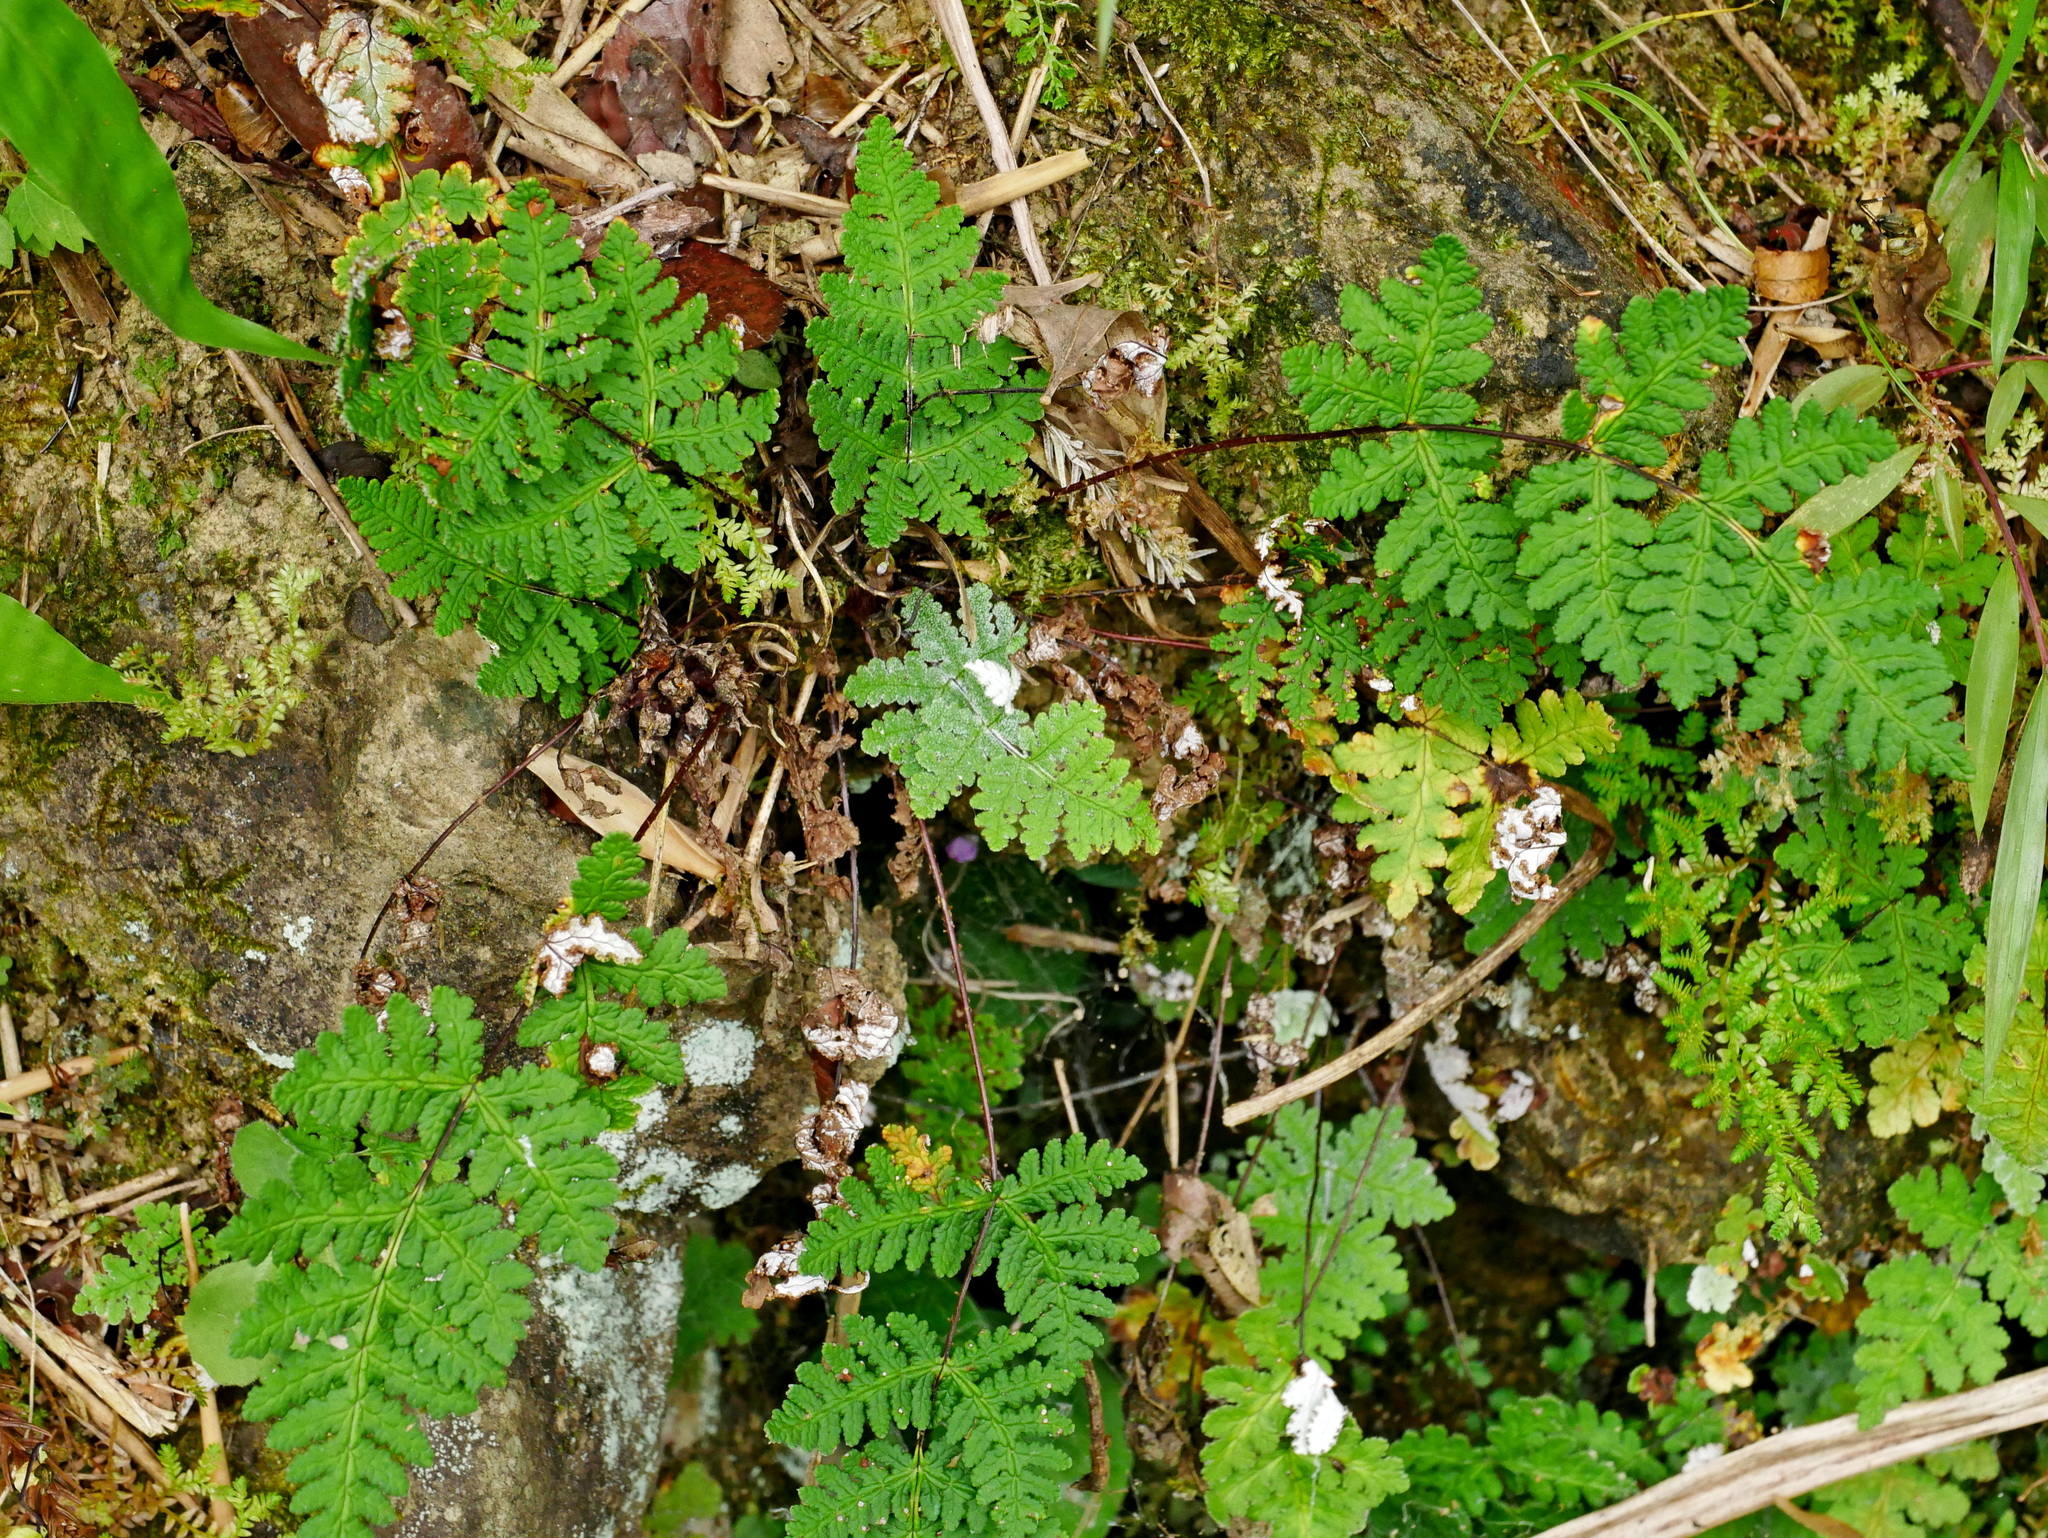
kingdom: Plantae
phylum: Tracheophyta
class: Polypodiopsida
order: Polypodiales
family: Pteridaceae
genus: Aleuritopteris
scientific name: Aleuritopteris formosana
